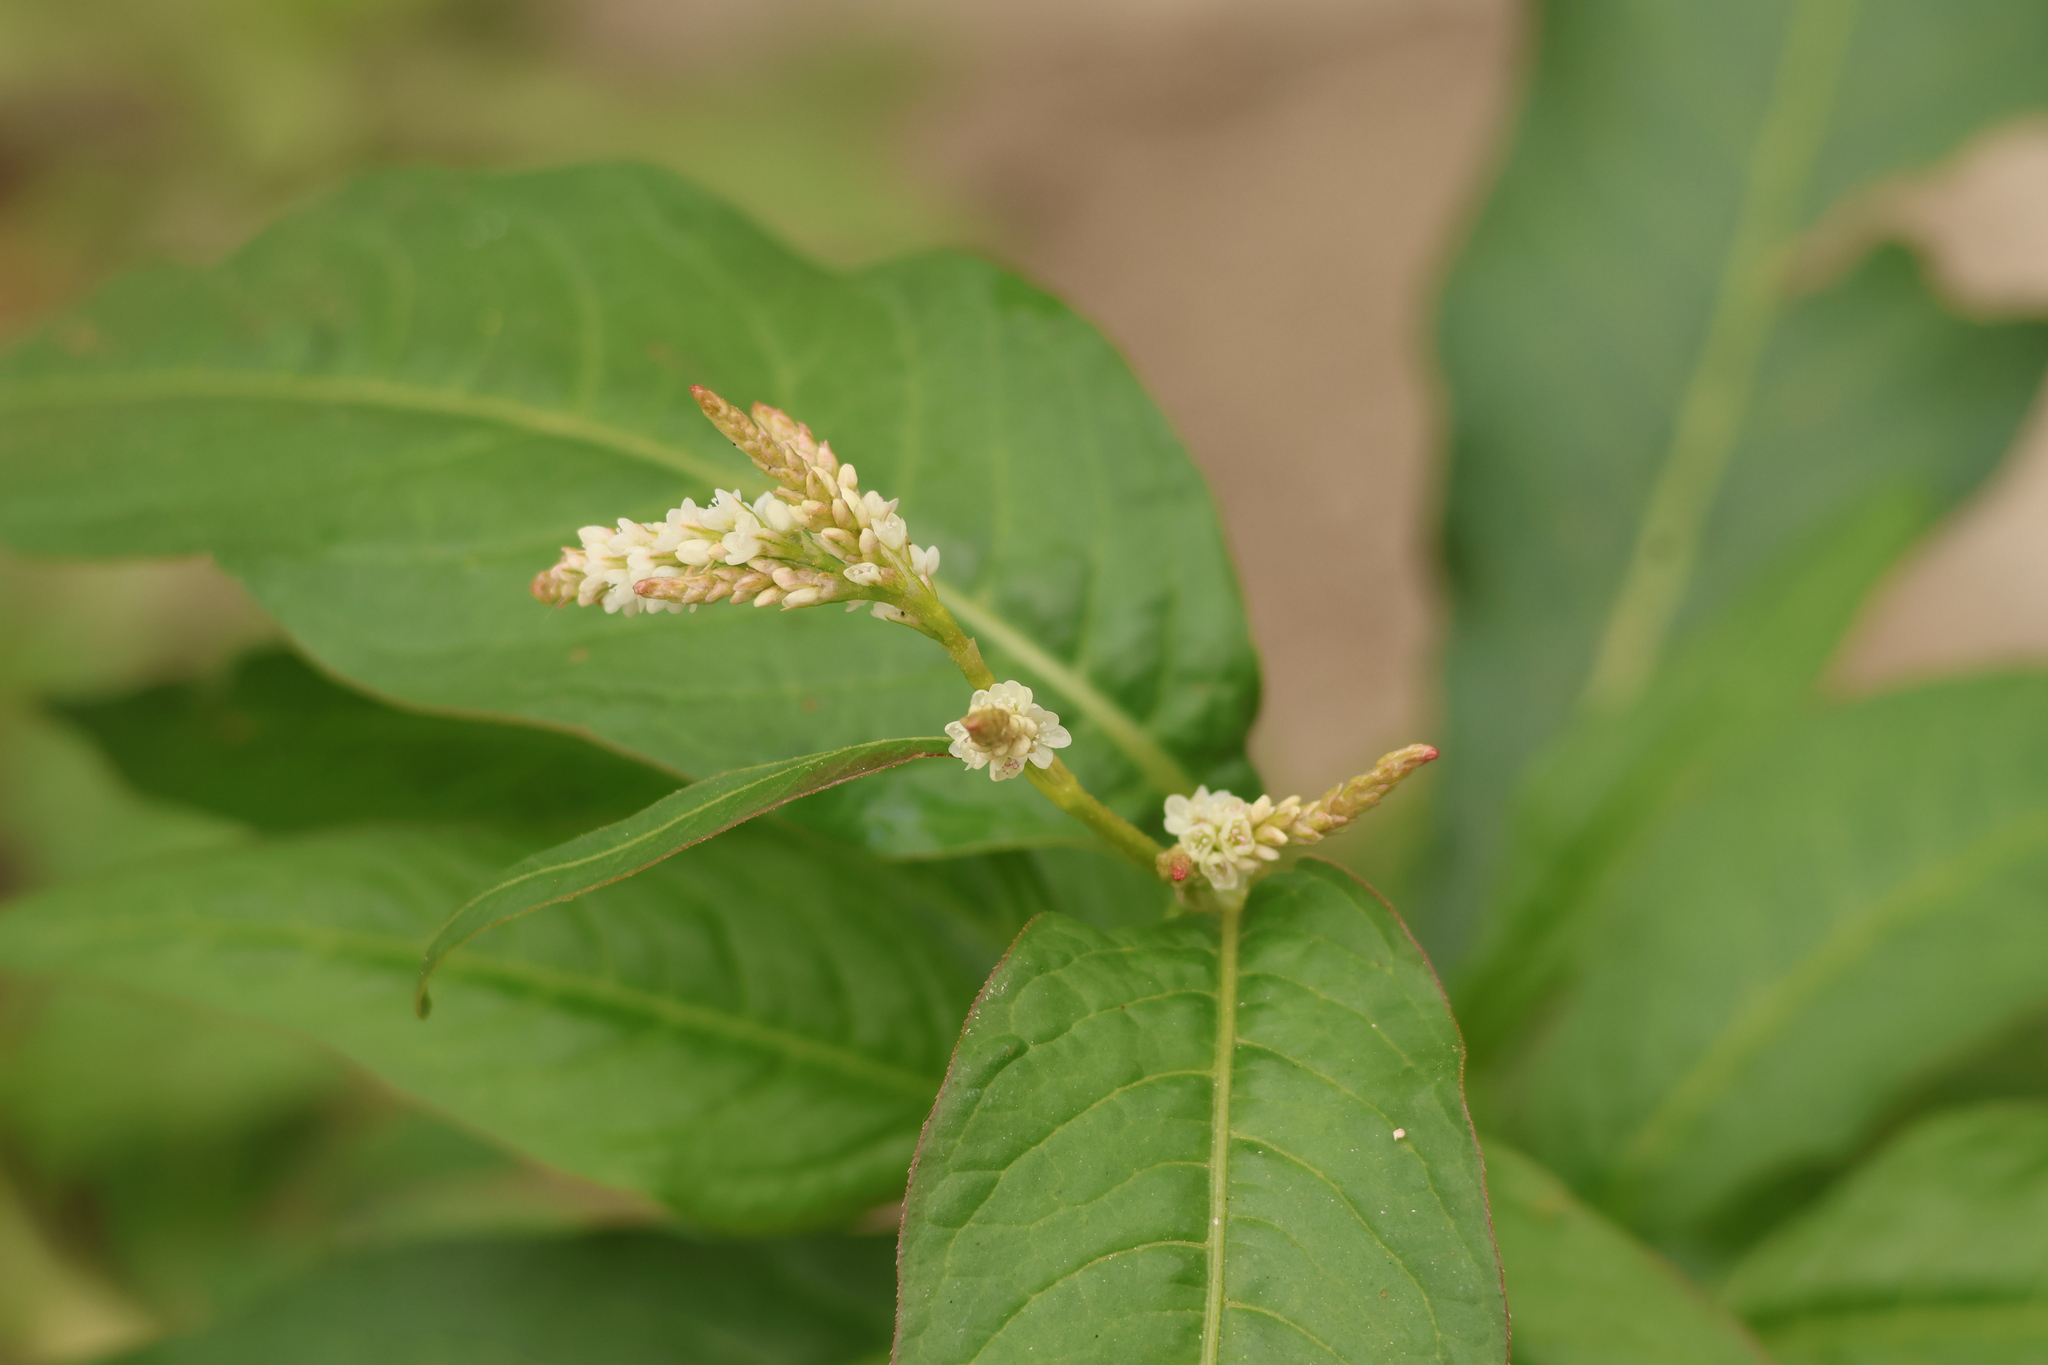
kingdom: Plantae
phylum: Tracheophyta
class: Magnoliopsida
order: Caryophyllales
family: Polygonaceae
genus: Persicaria
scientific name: Persicaria lapathifolia
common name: Curlytop knotweed
